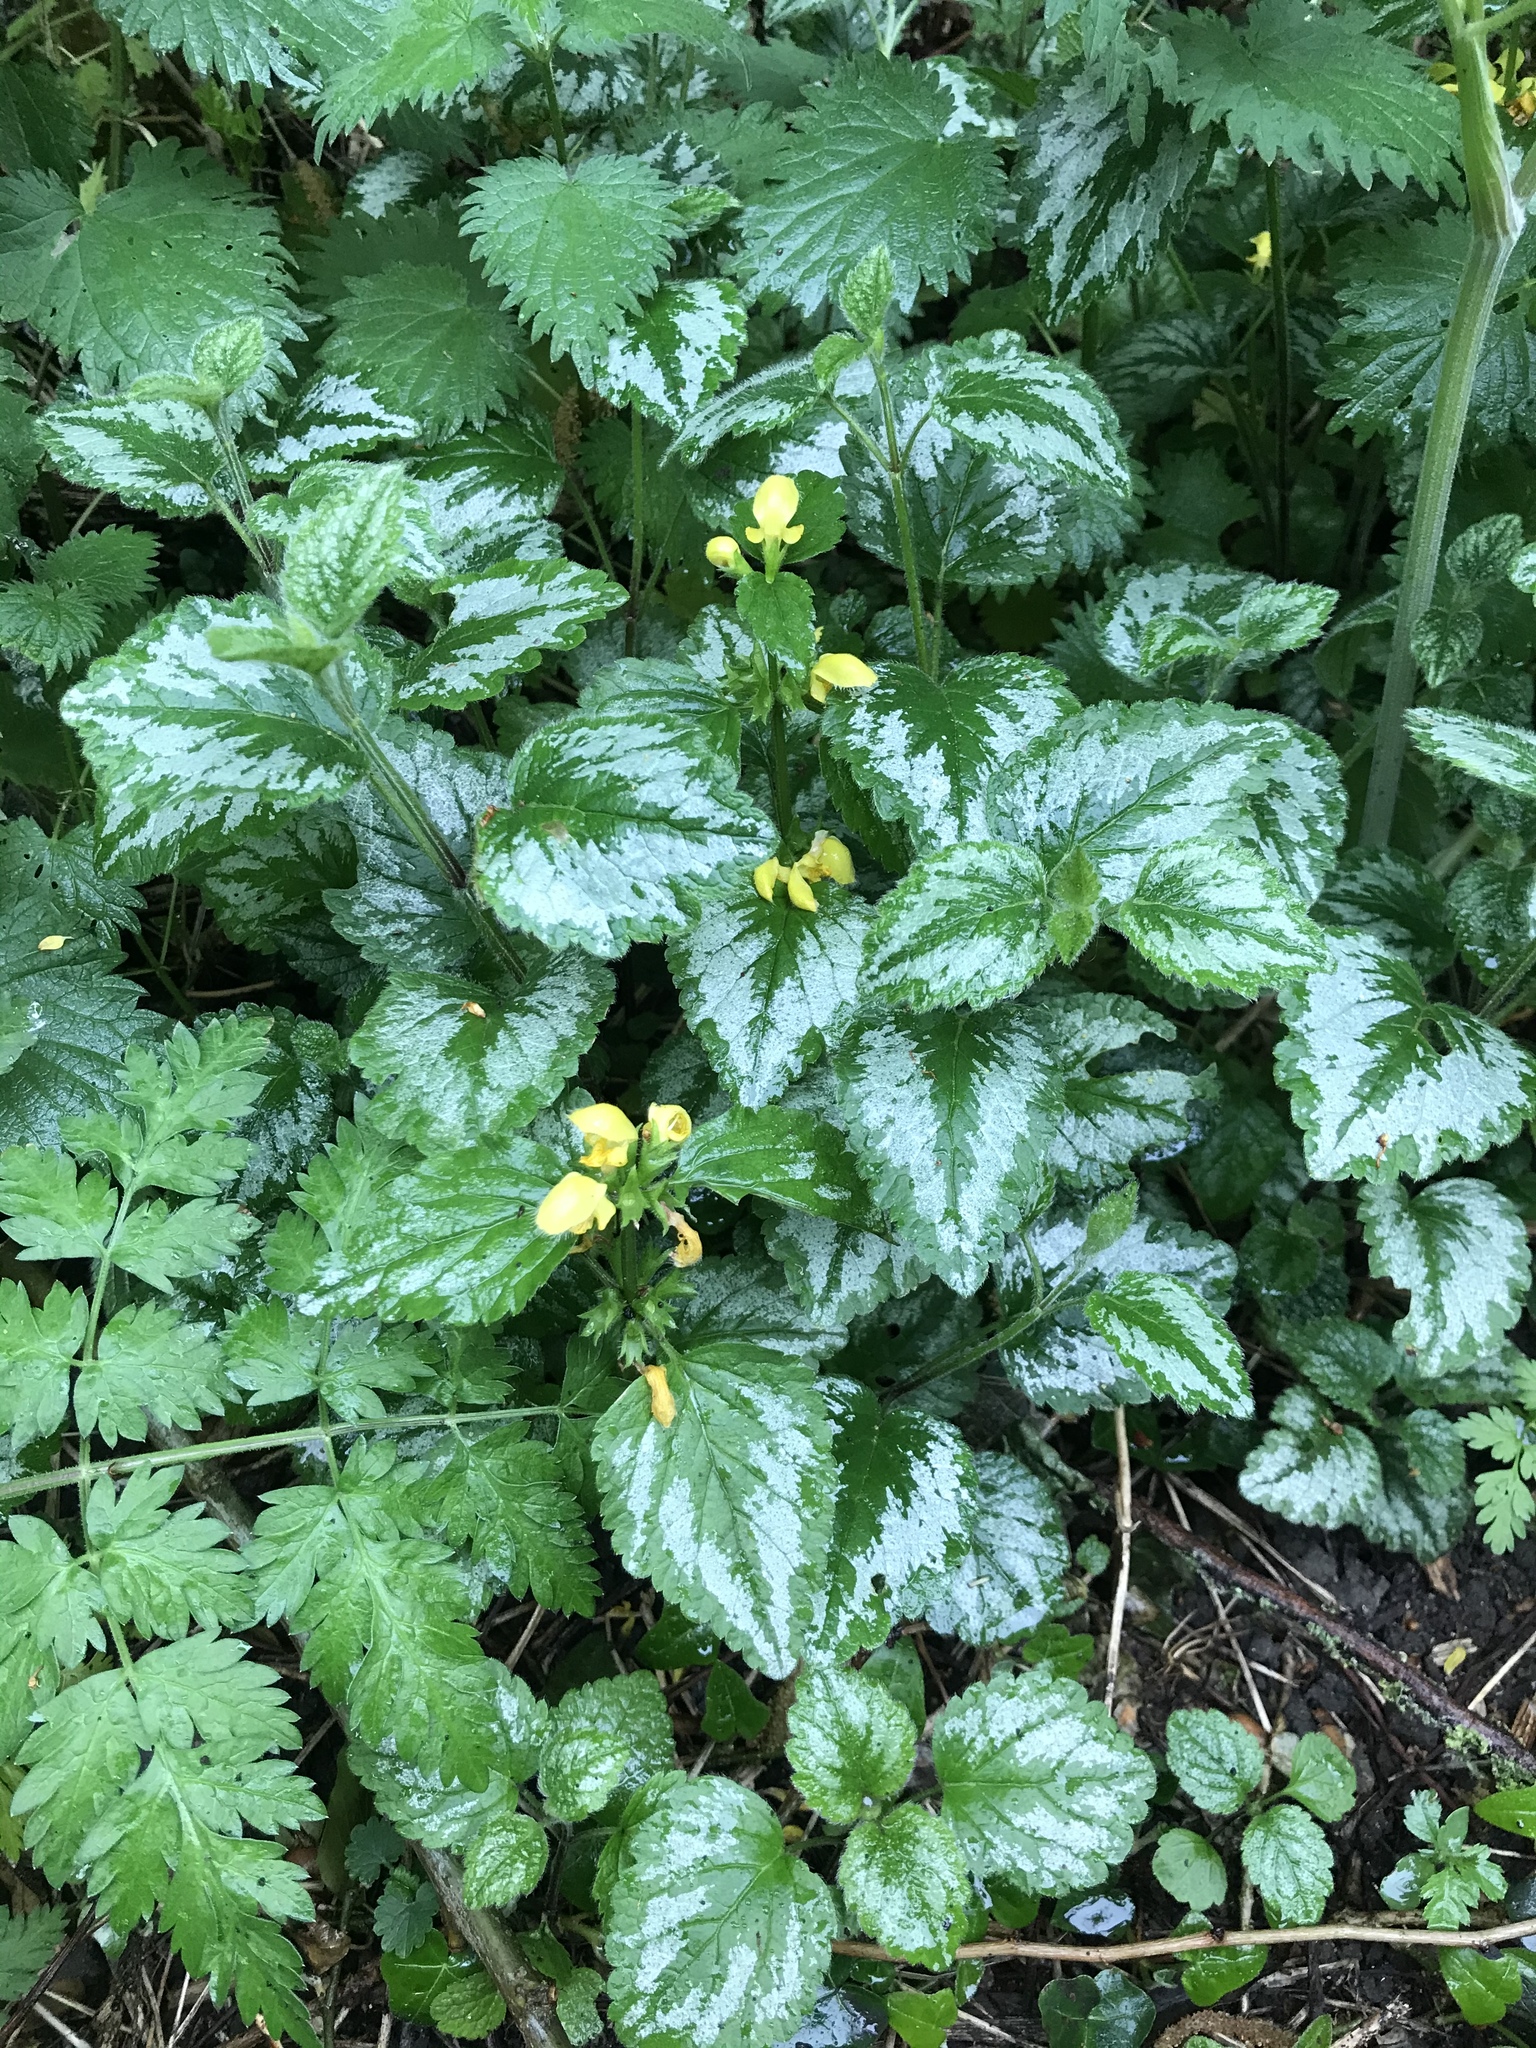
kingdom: Plantae
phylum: Tracheophyta
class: Magnoliopsida
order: Lamiales
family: Lamiaceae
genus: Lamium
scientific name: Lamium galeobdolon
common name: Yellow archangel
